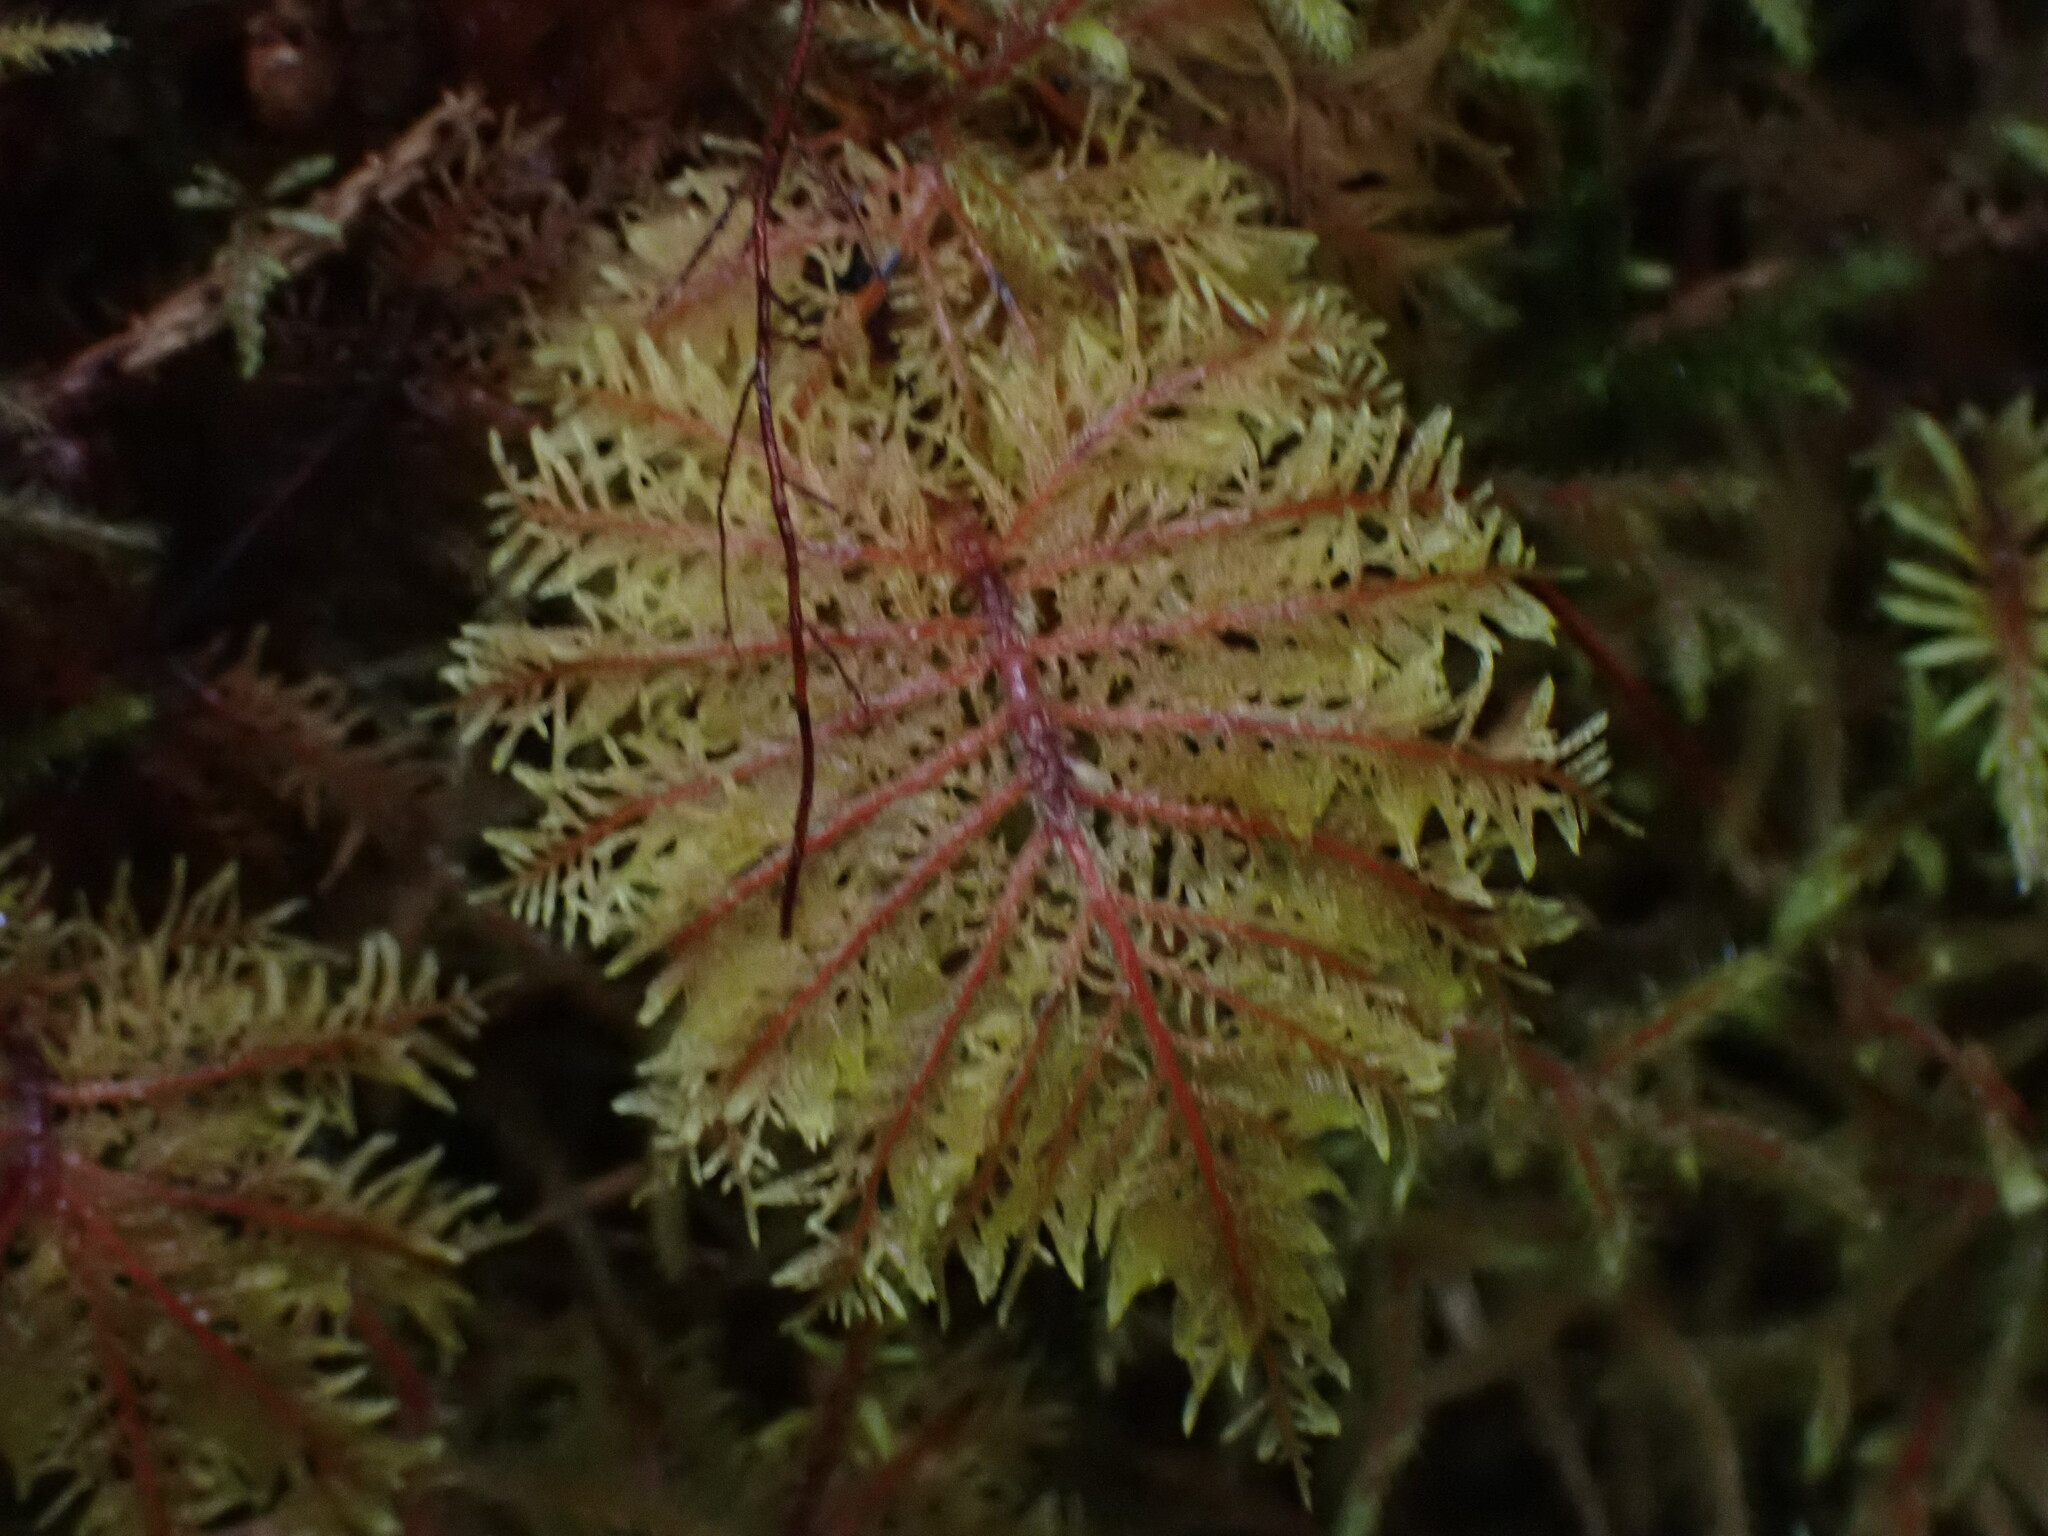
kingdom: Plantae
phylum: Bryophyta
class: Bryopsida
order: Hypnales
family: Hylocomiaceae
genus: Hylocomium
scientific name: Hylocomium splendens
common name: Stairstep moss
